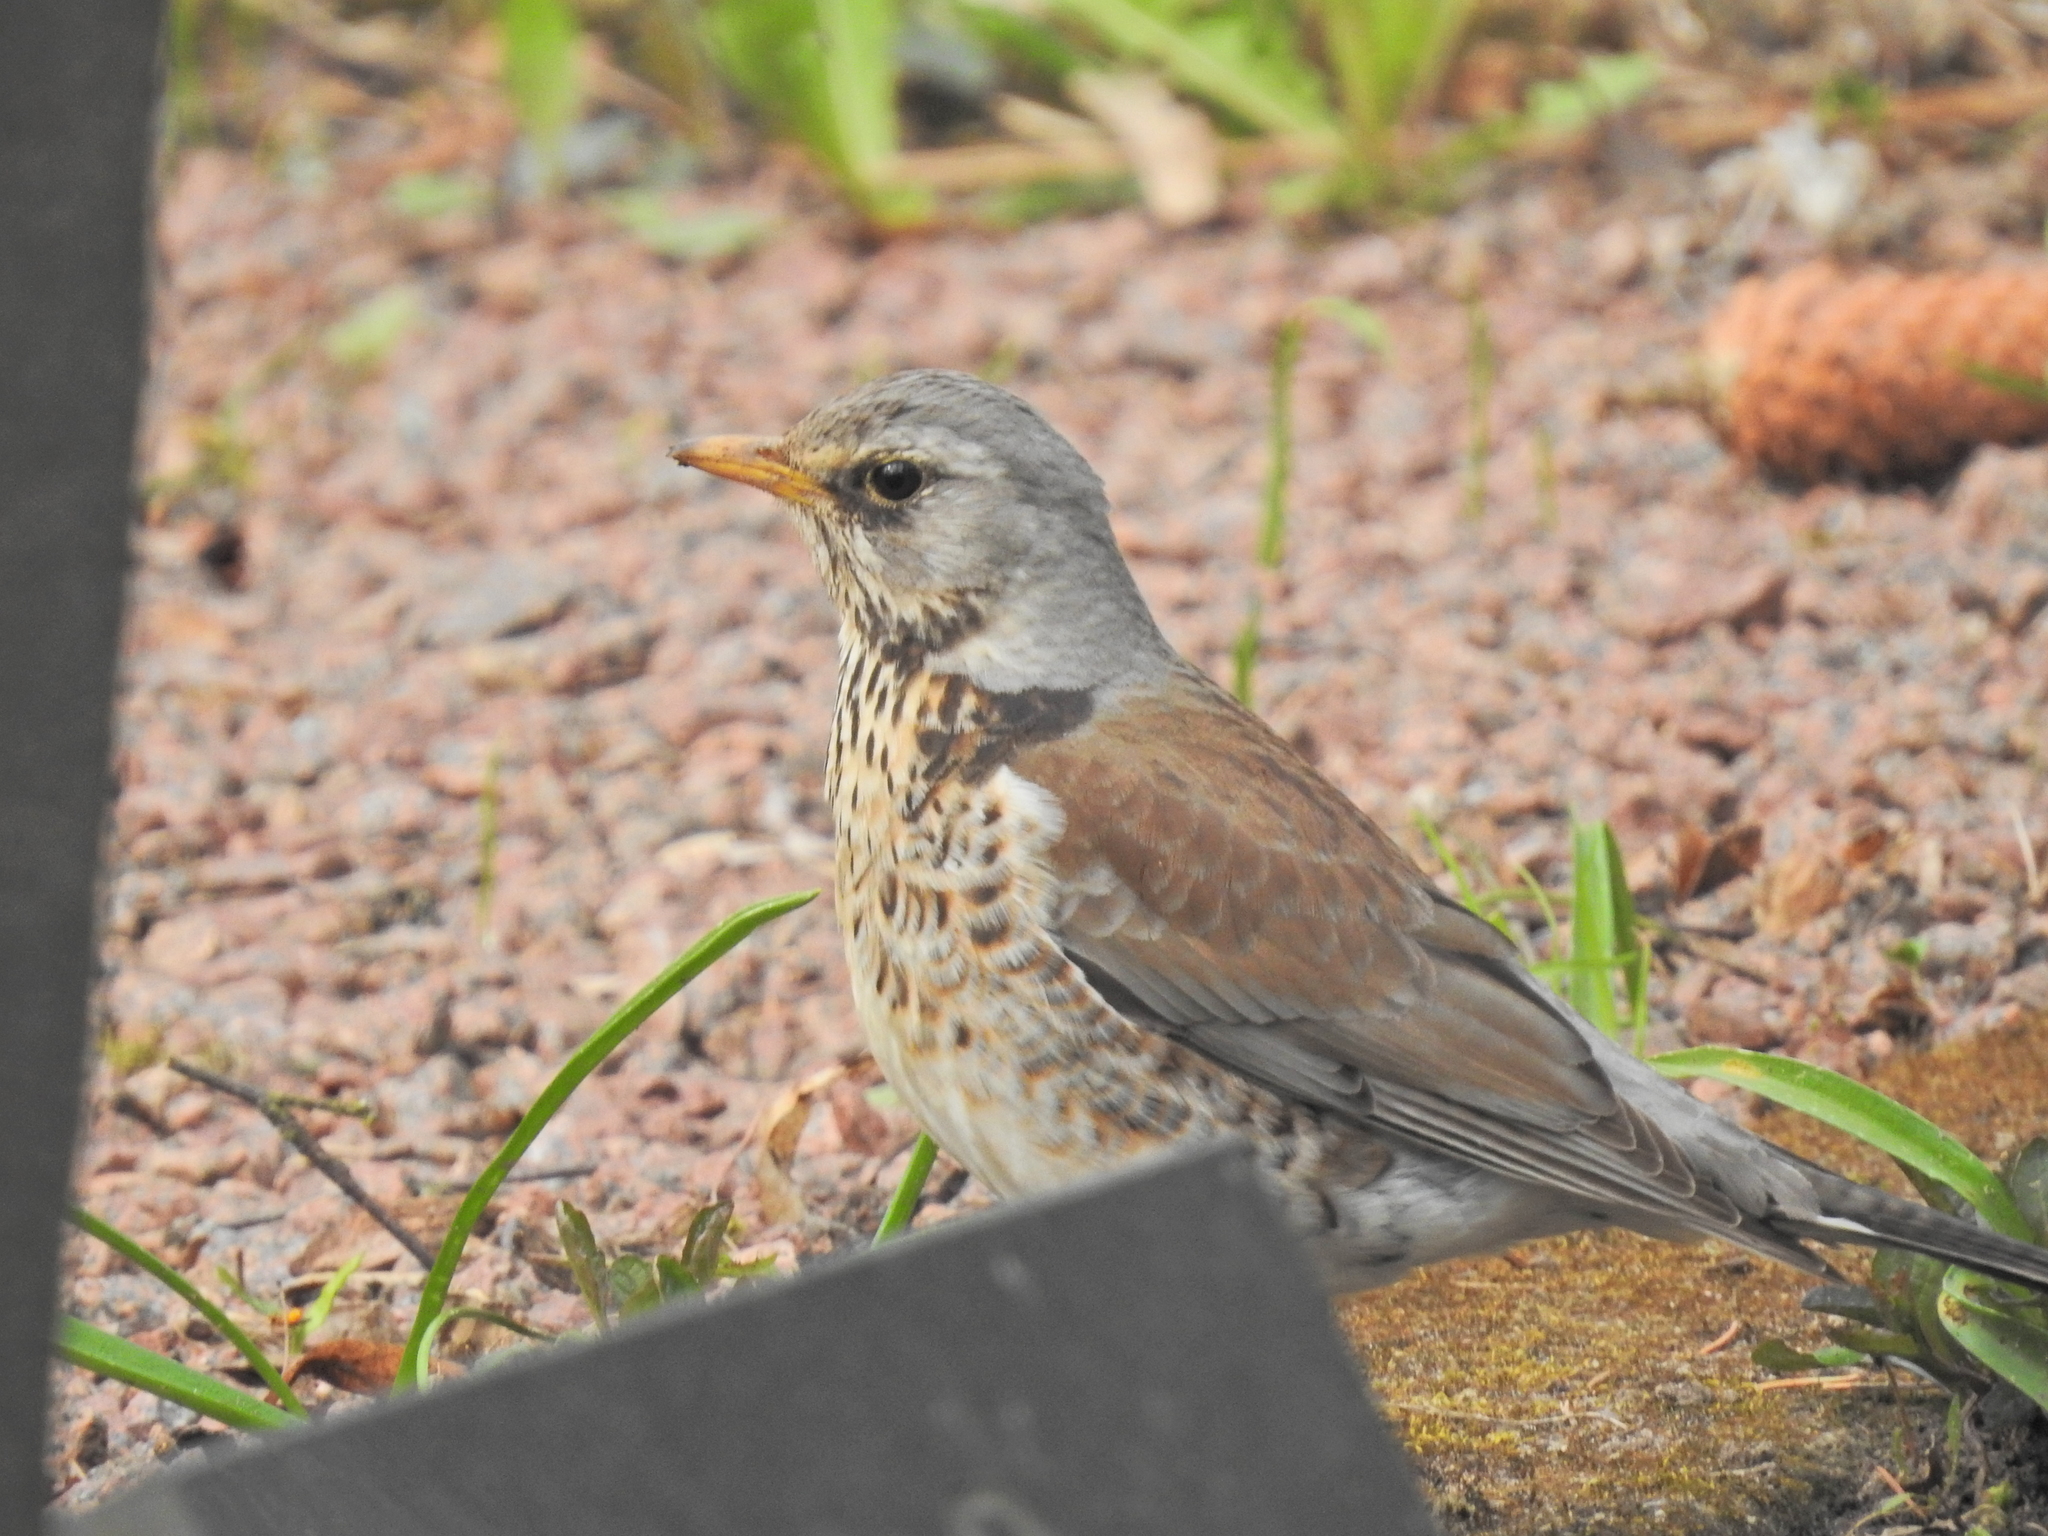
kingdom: Animalia
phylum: Chordata
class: Aves
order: Passeriformes
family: Turdidae
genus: Turdus
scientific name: Turdus pilaris
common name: Fieldfare
